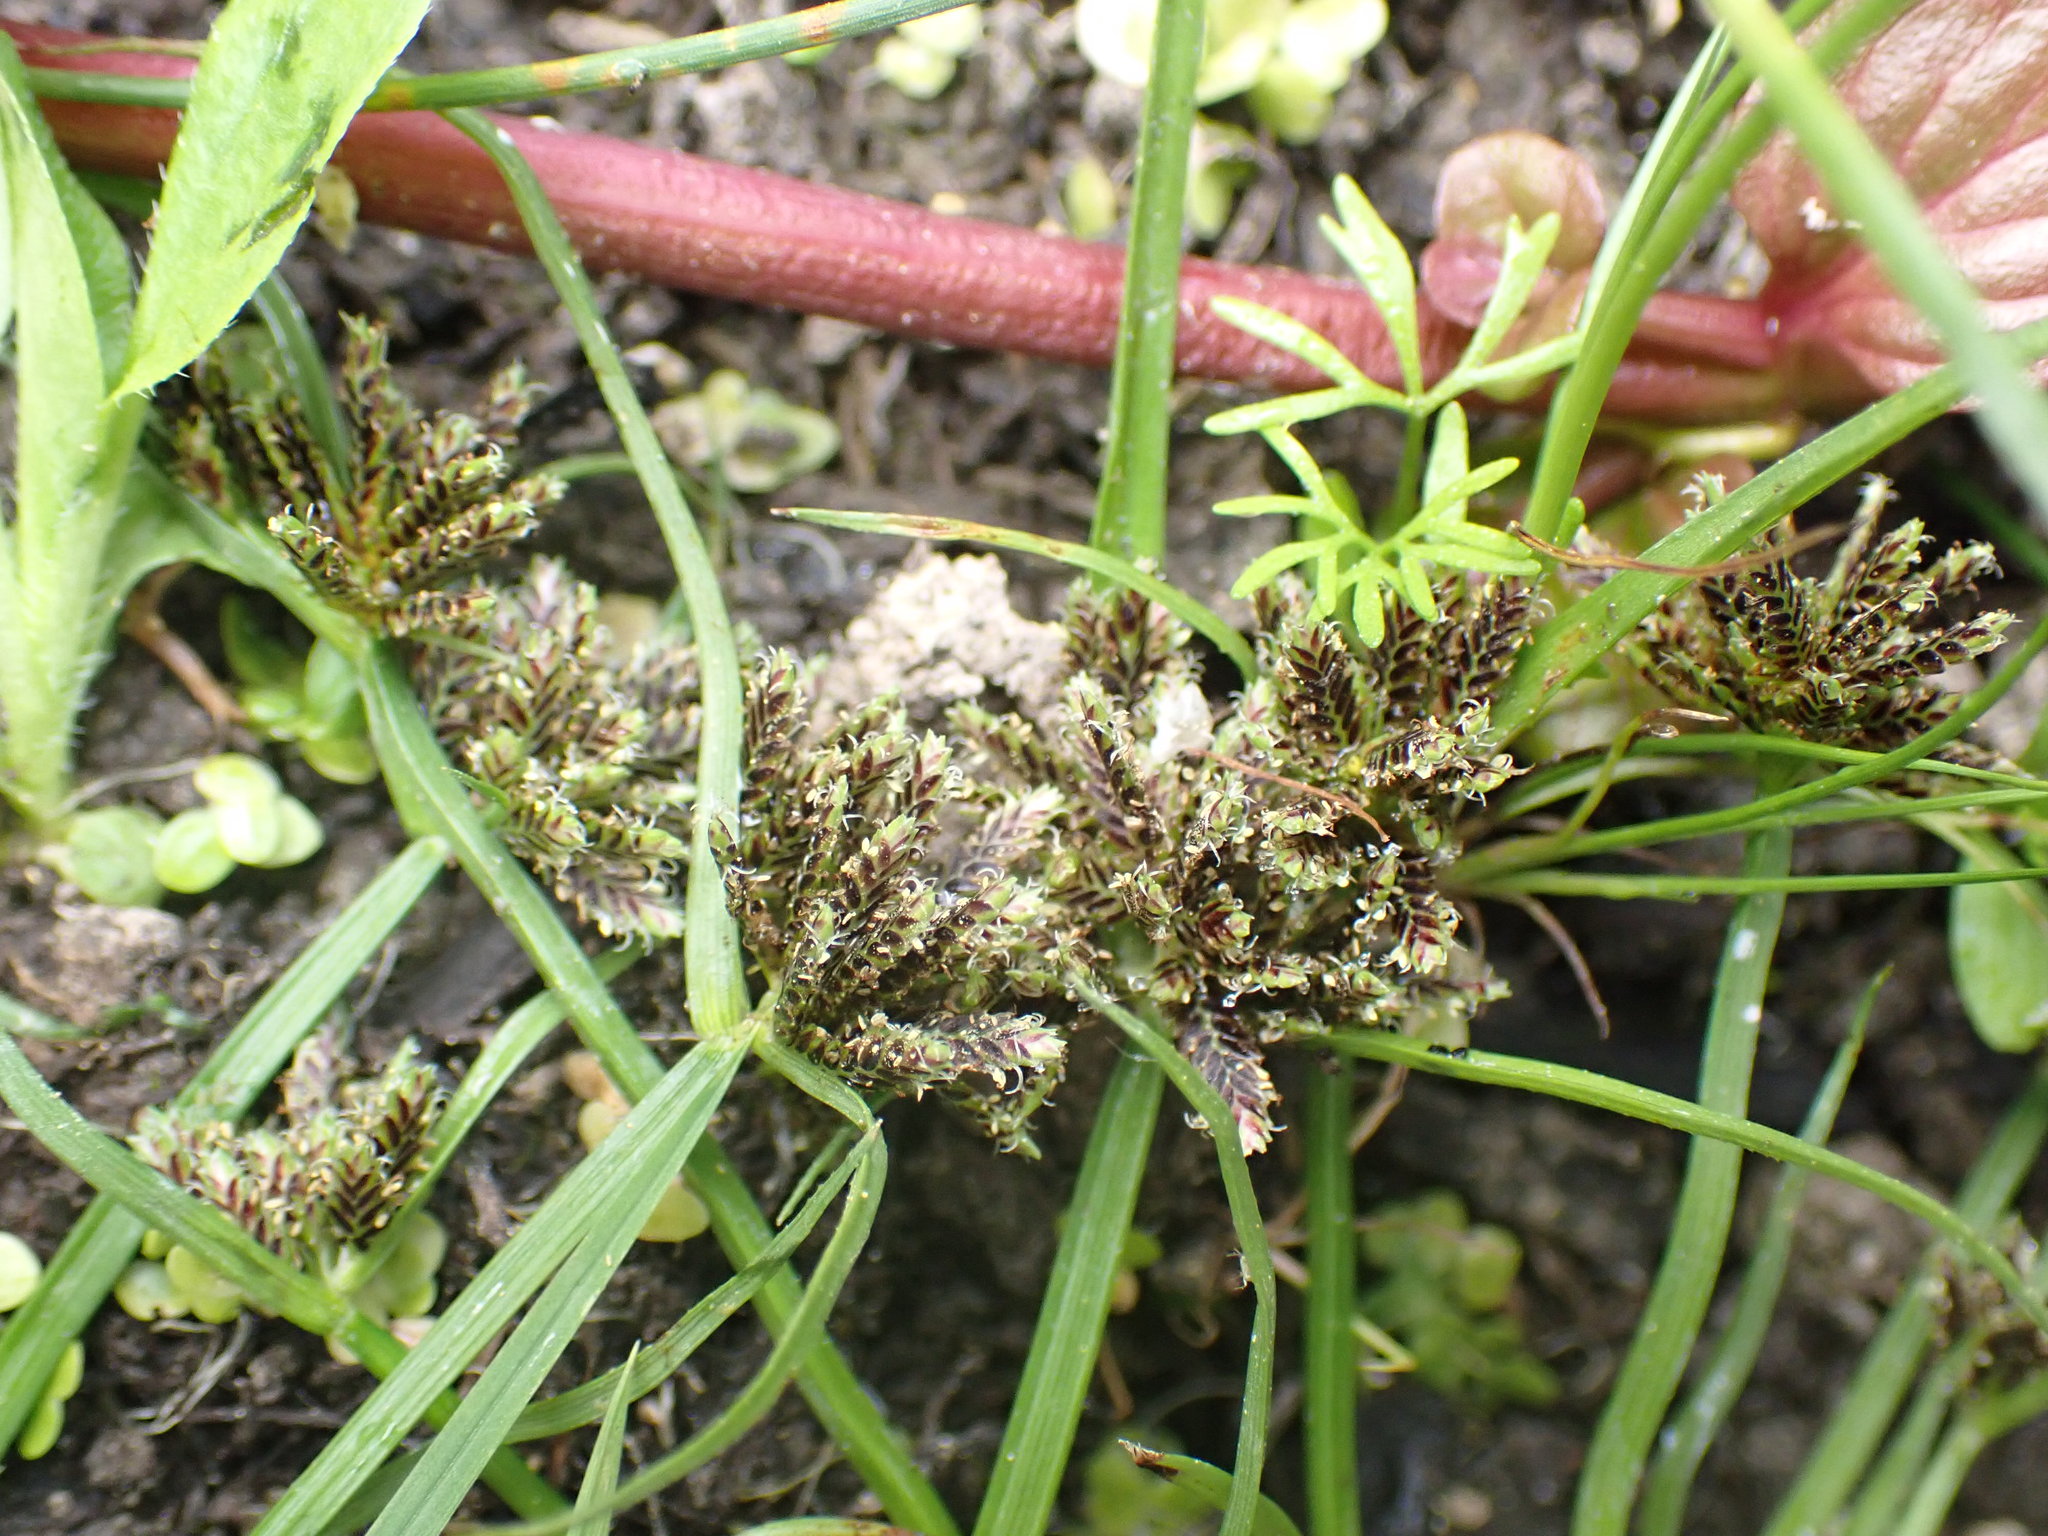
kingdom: Plantae
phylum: Tracheophyta
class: Liliopsida
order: Poales
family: Cyperaceae
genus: Cyperus
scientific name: Cyperus fuscus
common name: Brown galingale
